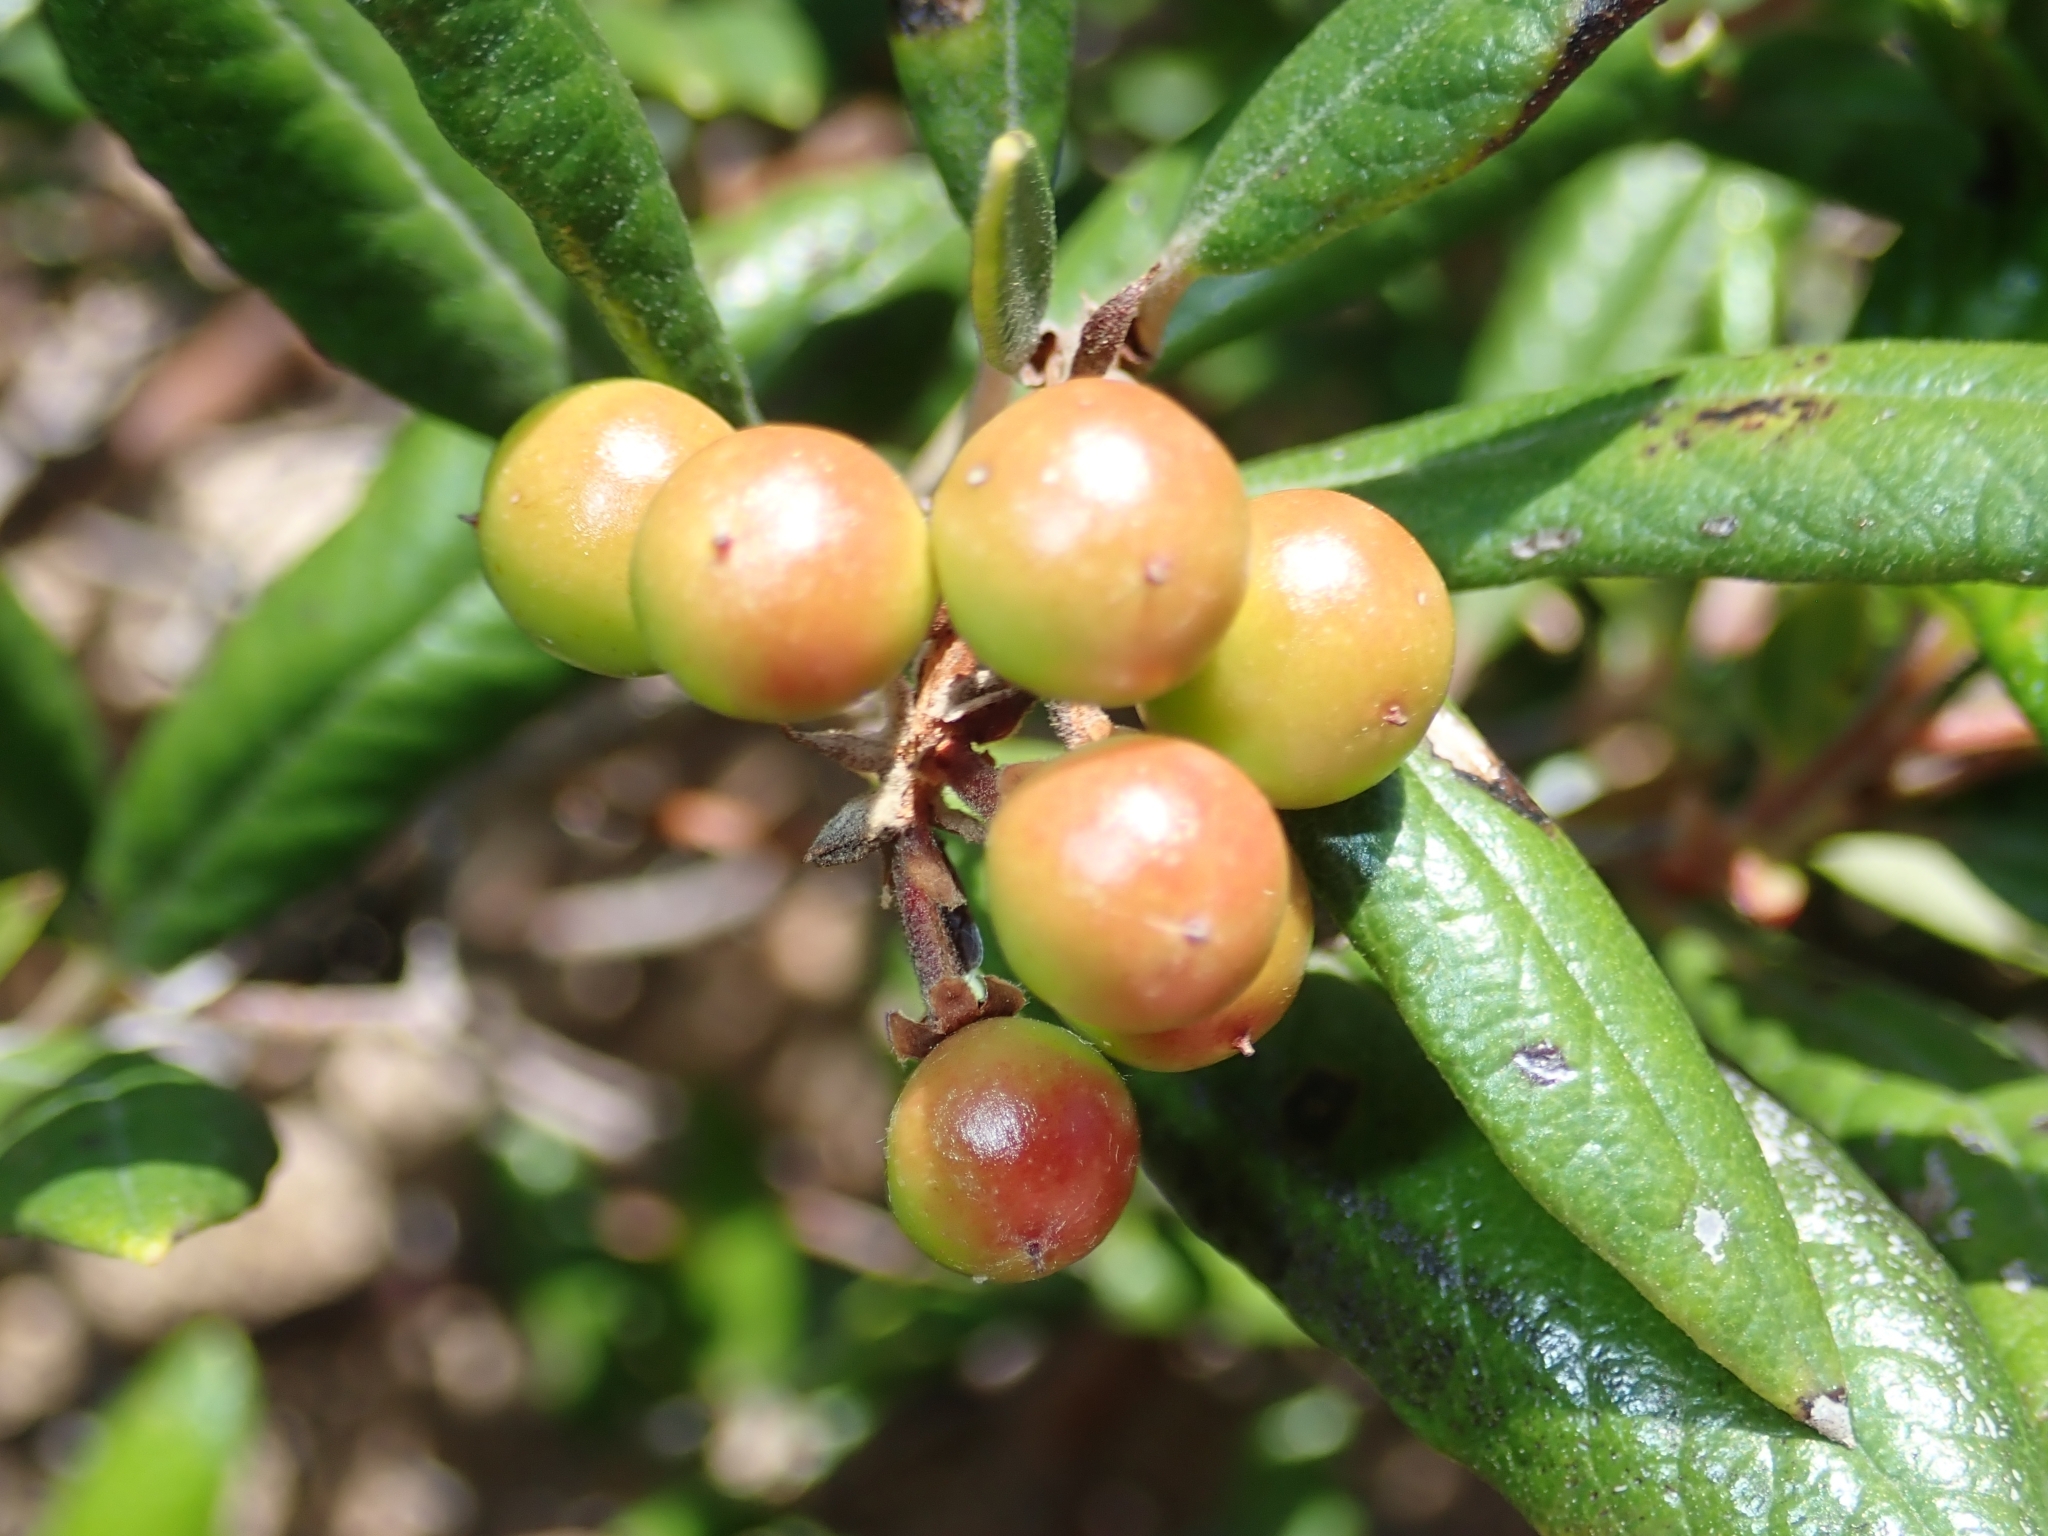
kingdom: Plantae
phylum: Tracheophyta
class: Magnoliopsida
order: Ericales
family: Ericaceae
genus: Arctostaphylos
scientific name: Arctostaphylos bicolor
